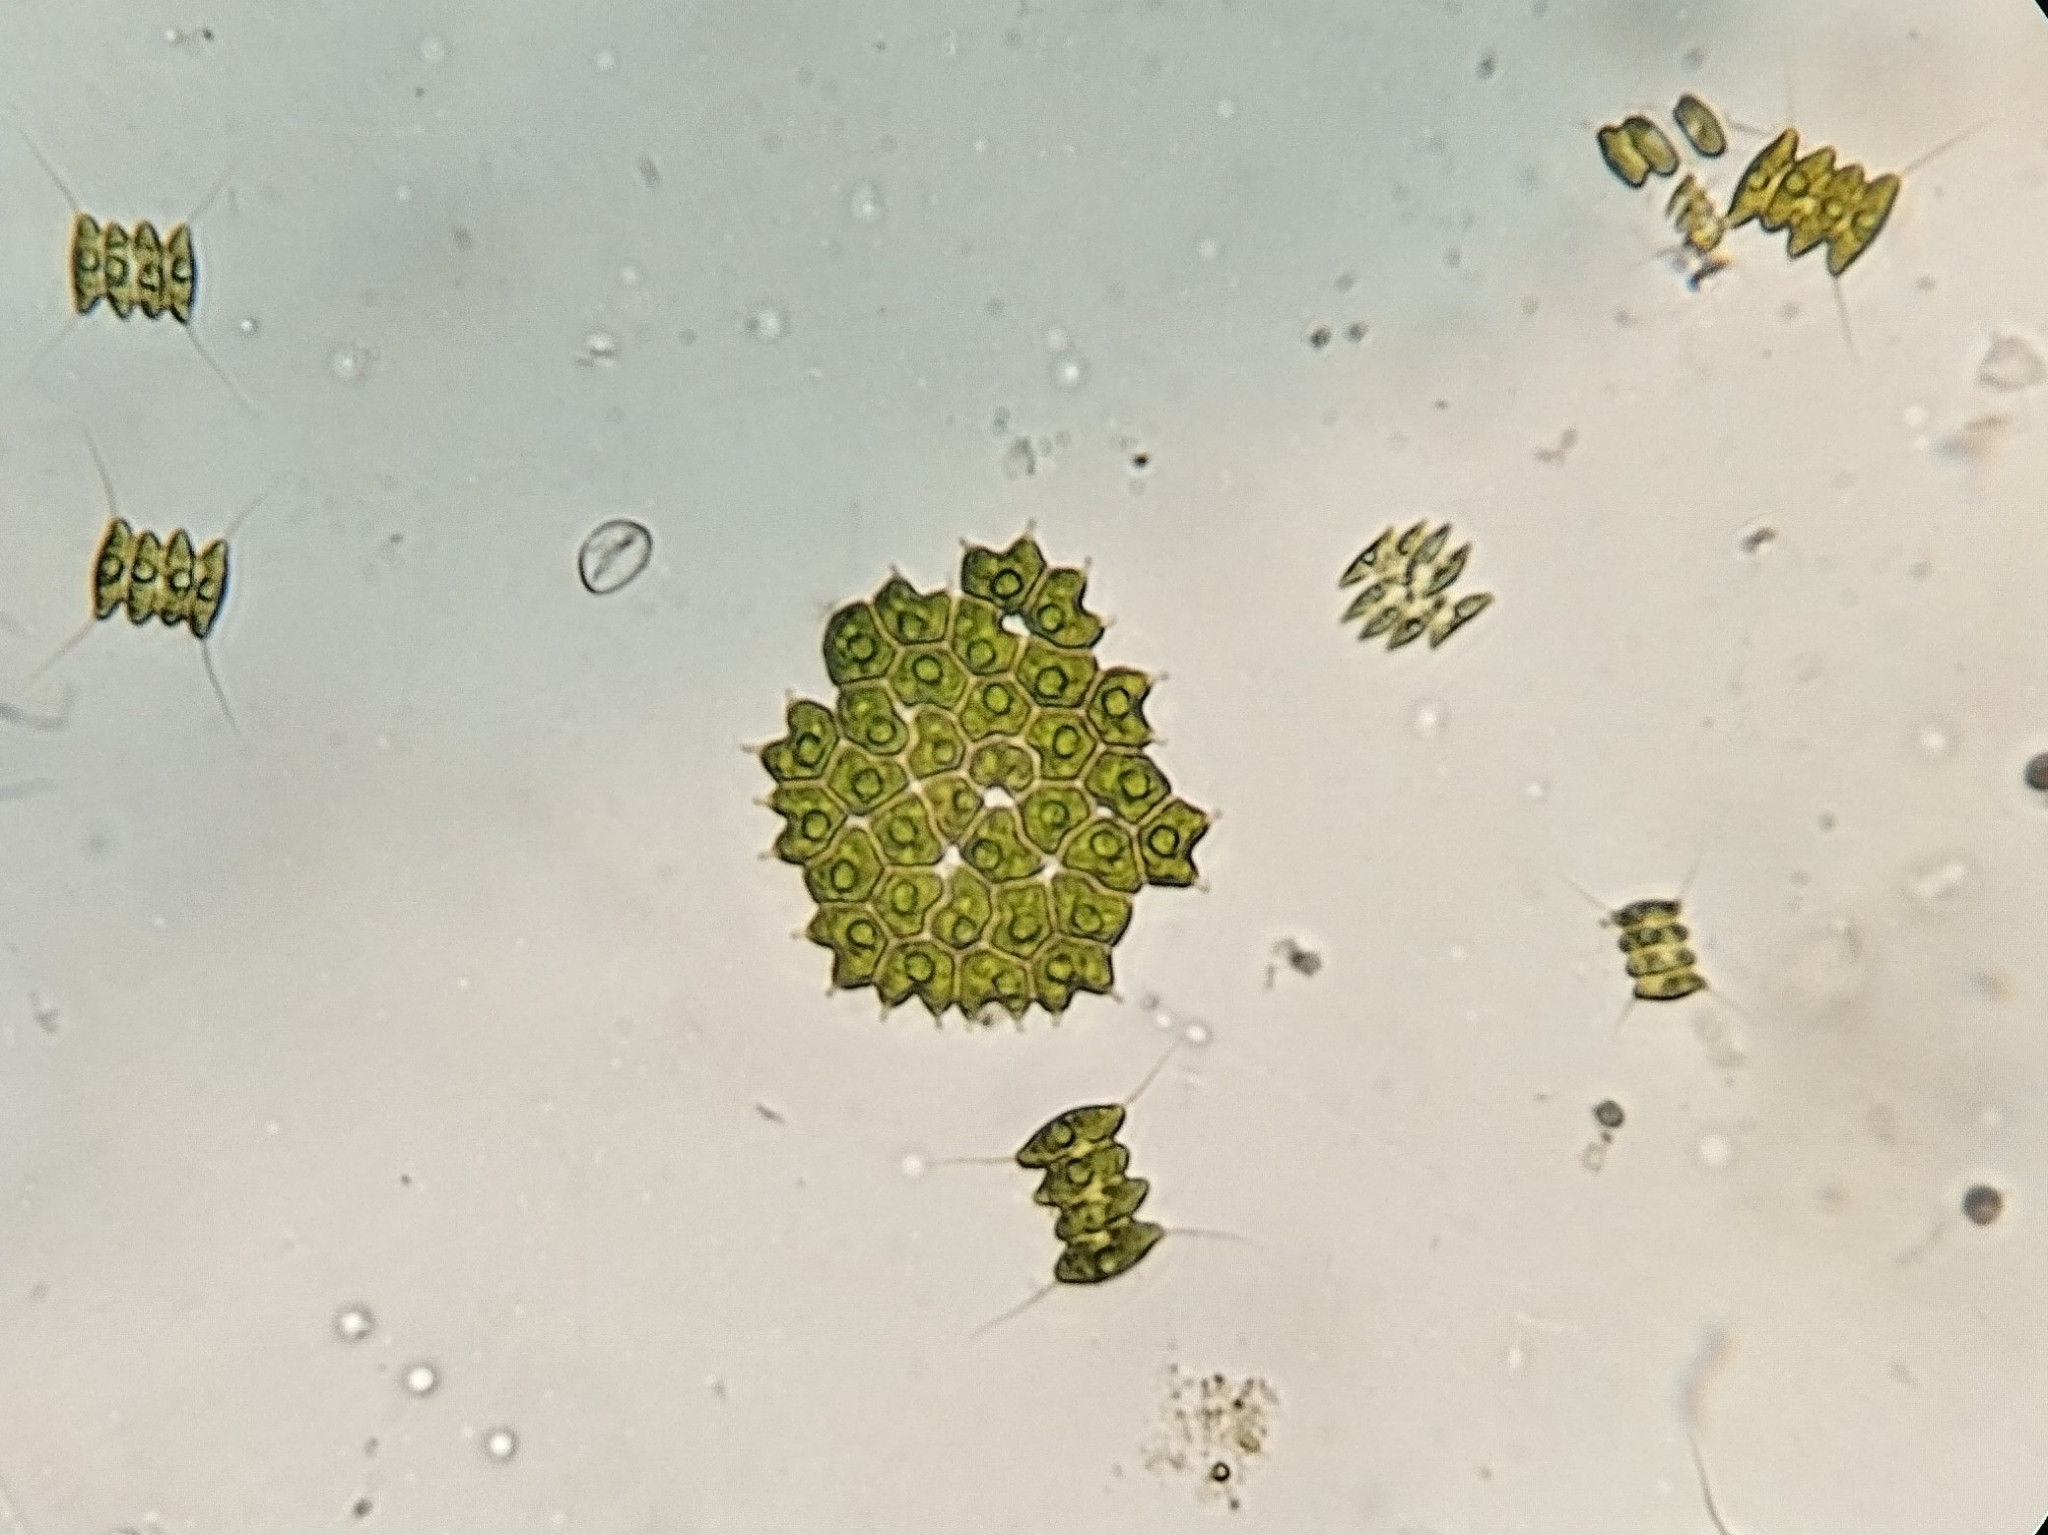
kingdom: Plantae
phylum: Chlorophyta
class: Chlorophyceae
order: Sphaeropleales
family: Hydrodictyaceae
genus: Pseudopediastrum
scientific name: Pseudopediastrum boryanum
